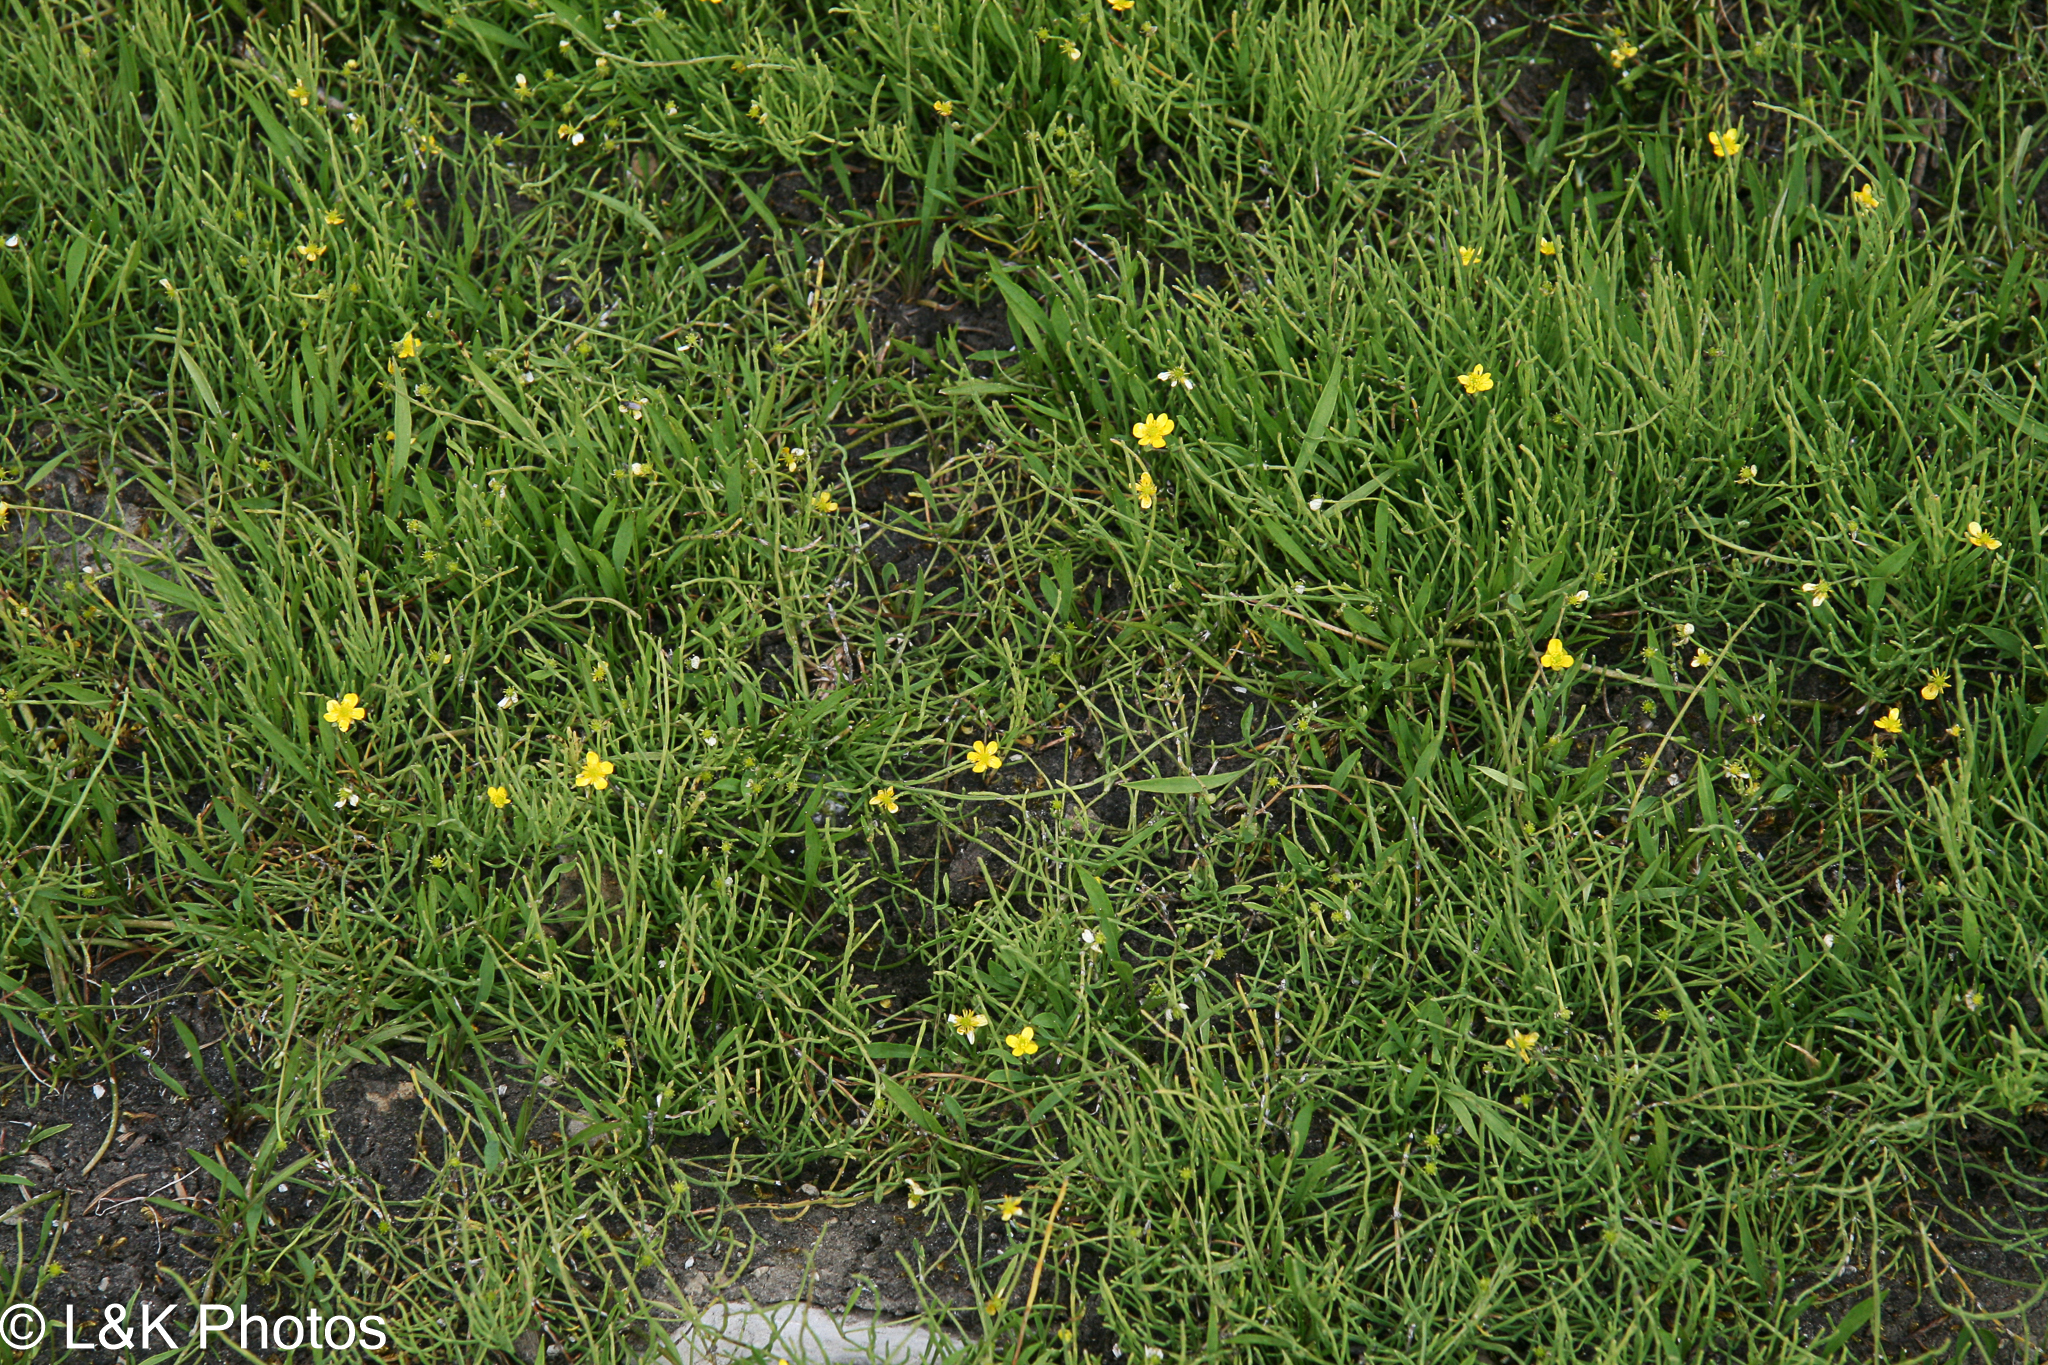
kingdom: Plantae
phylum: Tracheophyta
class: Magnoliopsida
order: Ranunculales
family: Ranunculaceae
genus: Ranunculus
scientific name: Ranunculus flammula
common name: Lesser spearwort
